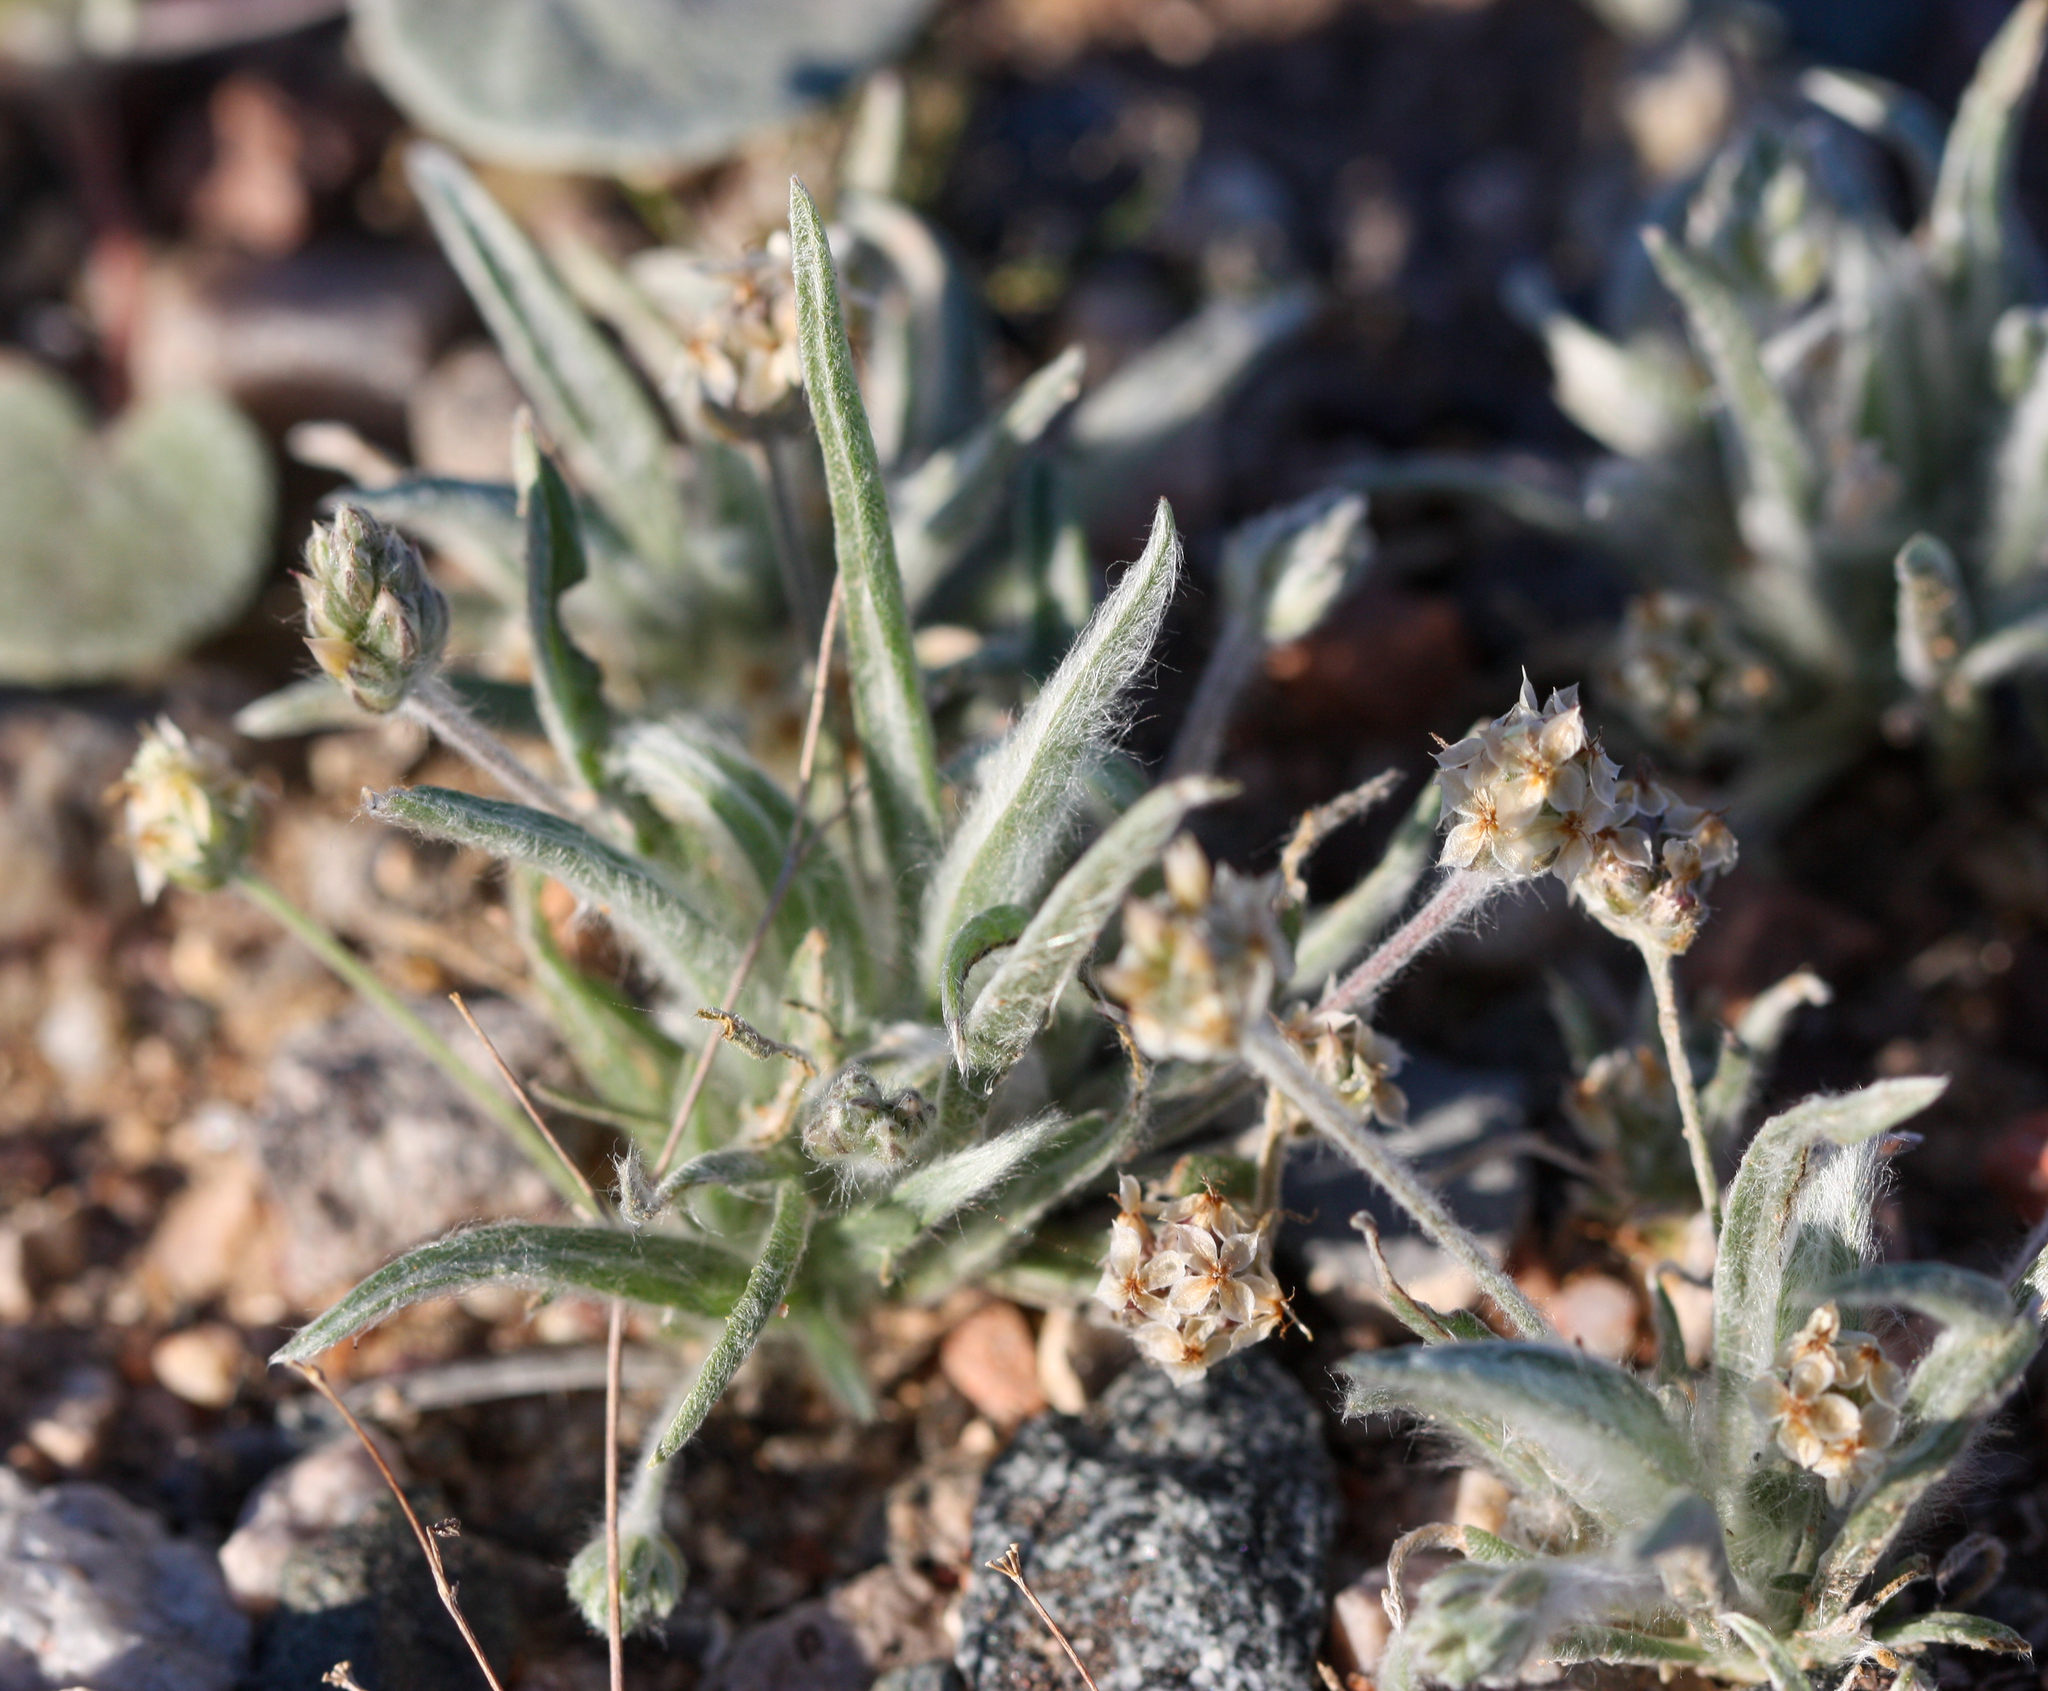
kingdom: Plantae
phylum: Tracheophyta
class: Magnoliopsida
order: Lamiales
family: Plantaginaceae
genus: Plantago
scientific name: Plantago ovata
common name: Blond plantain
